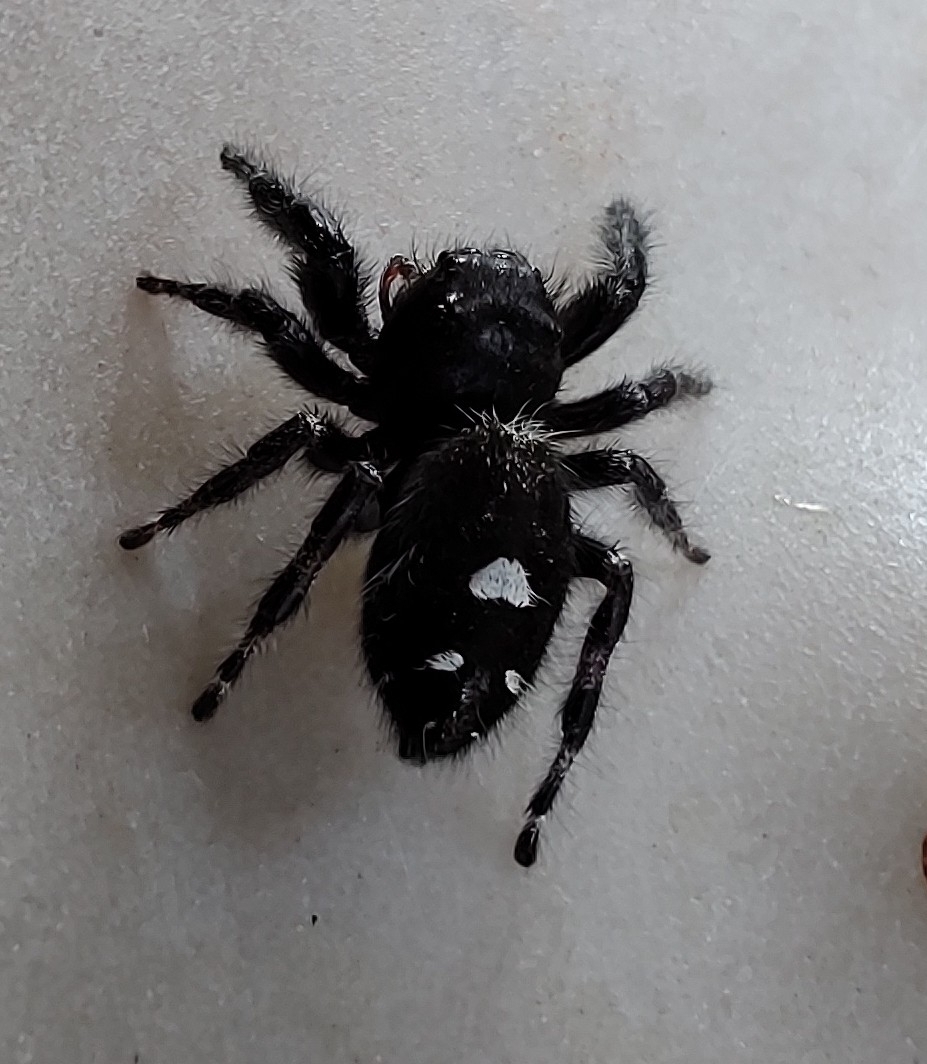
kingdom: Animalia
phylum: Arthropoda
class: Arachnida
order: Araneae
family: Salticidae
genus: Phidippus
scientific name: Phidippus audax
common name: Bold jumper
